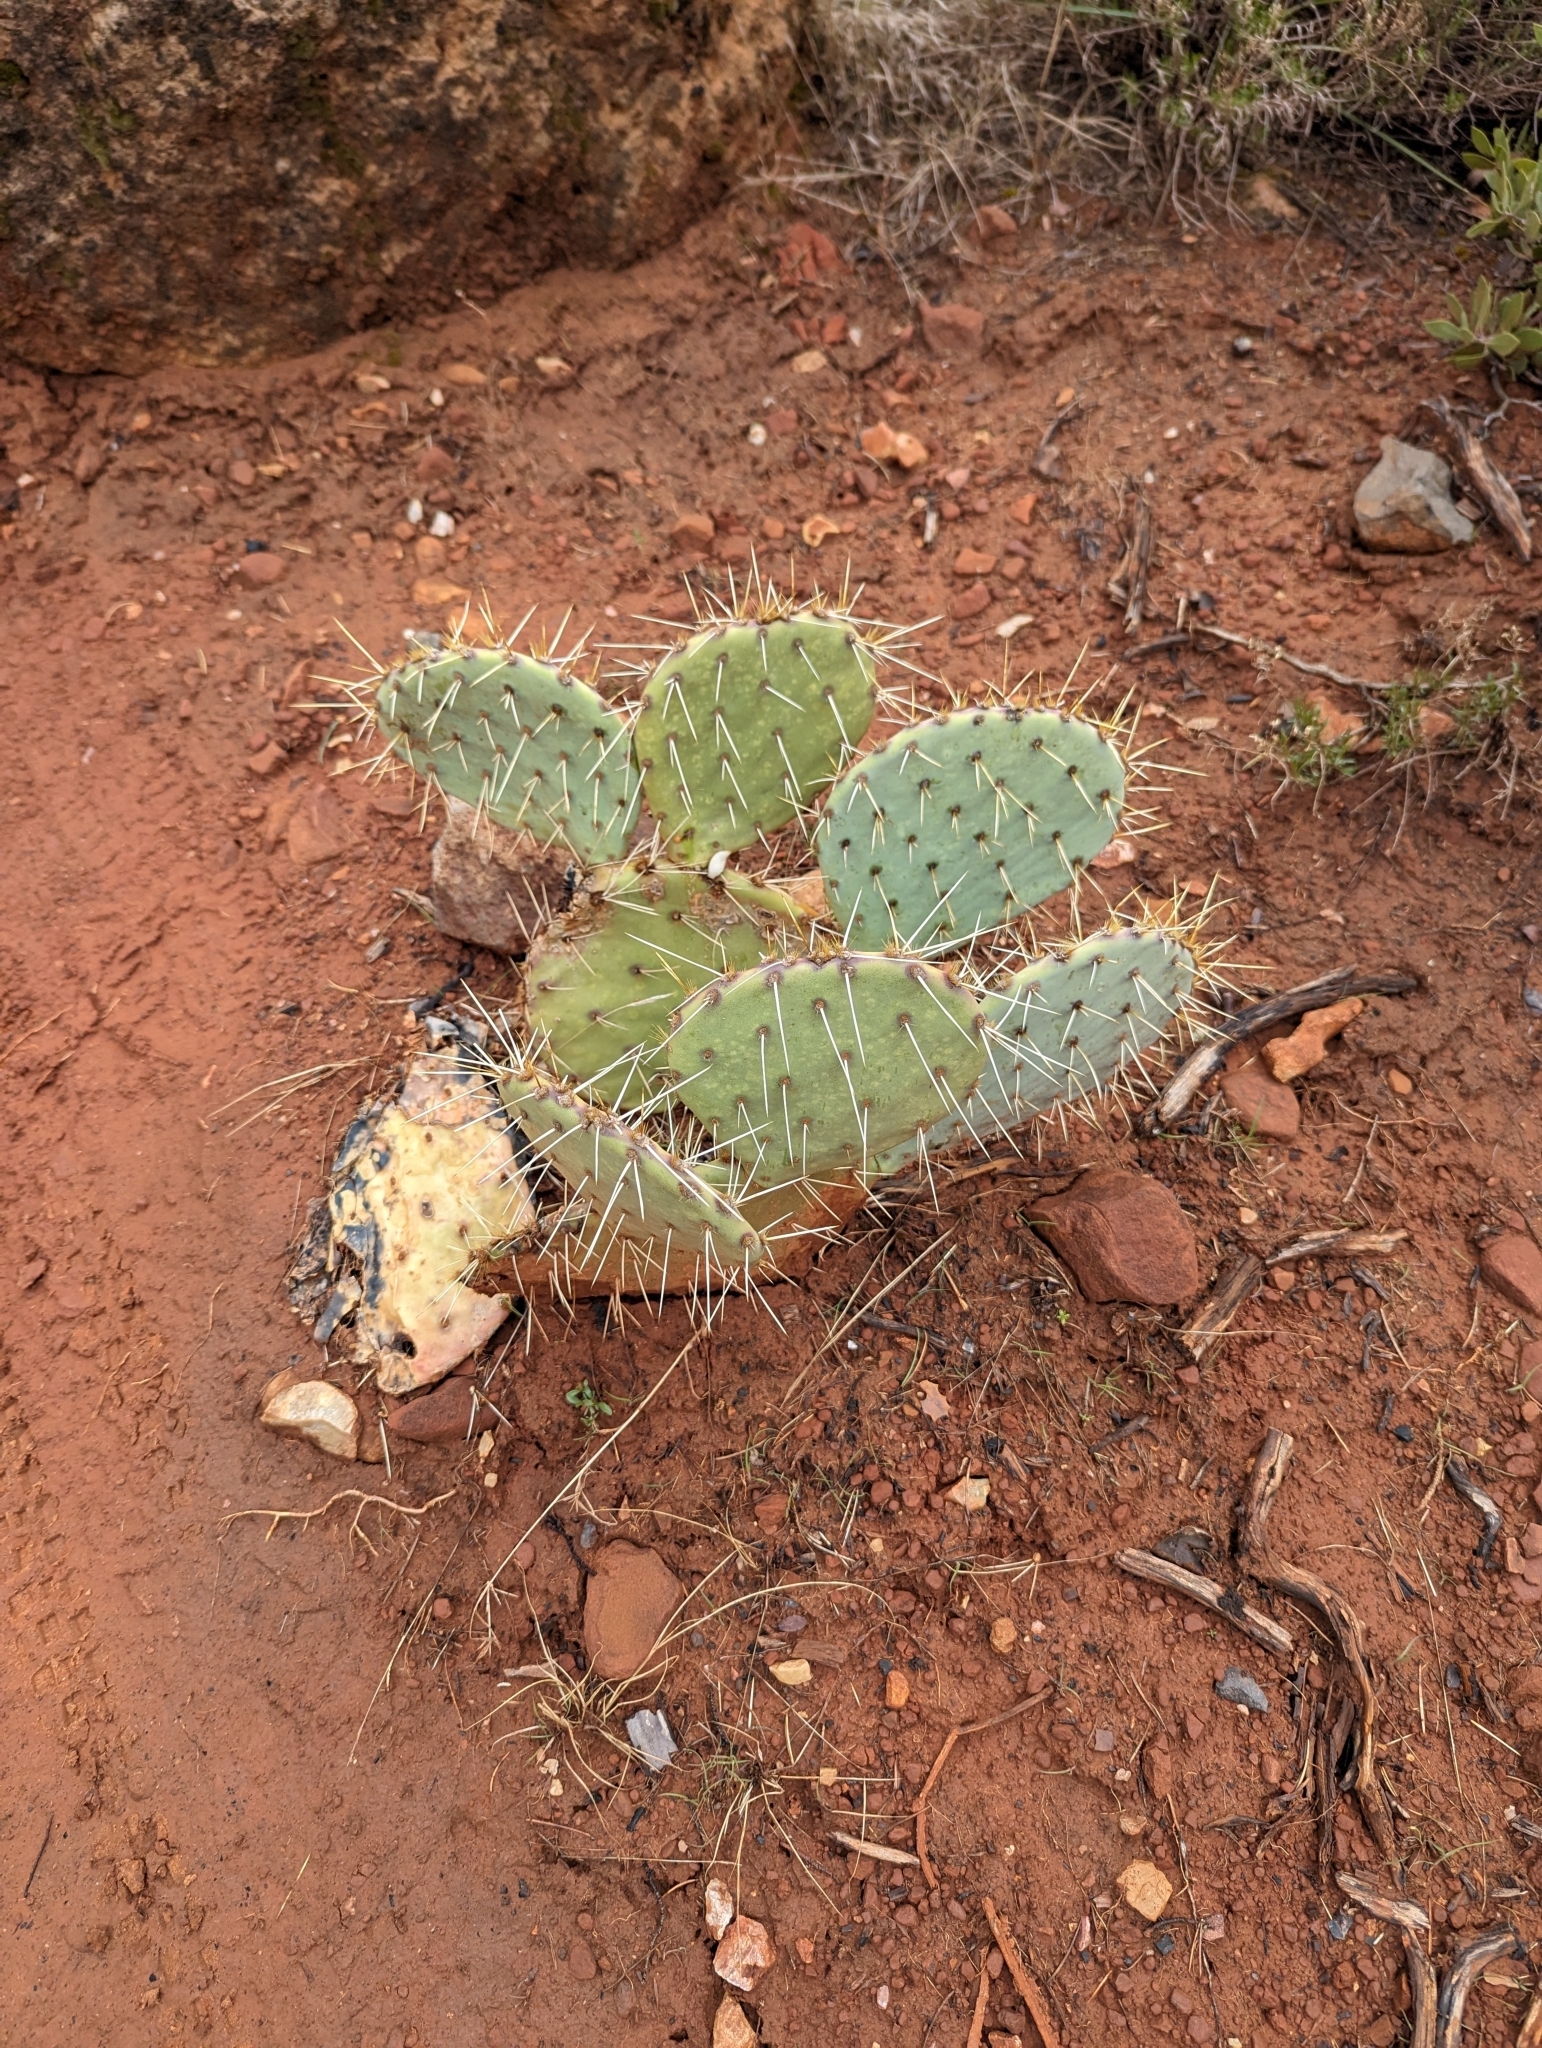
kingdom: Plantae
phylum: Tracheophyta
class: Magnoliopsida
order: Caryophyllales
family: Cactaceae
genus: Opuntia
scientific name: Opuntia engelmannii
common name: Cactus-apple
